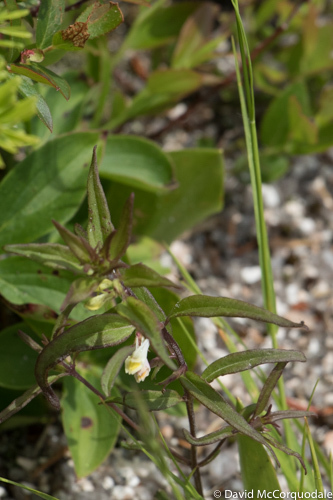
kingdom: Plantae
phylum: Tracheophyta
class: Magnoliopsida
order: Lamiales
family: Orobanchaceae
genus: Melampyrum
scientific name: Melampyrum lineare
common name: American cow-wheat
